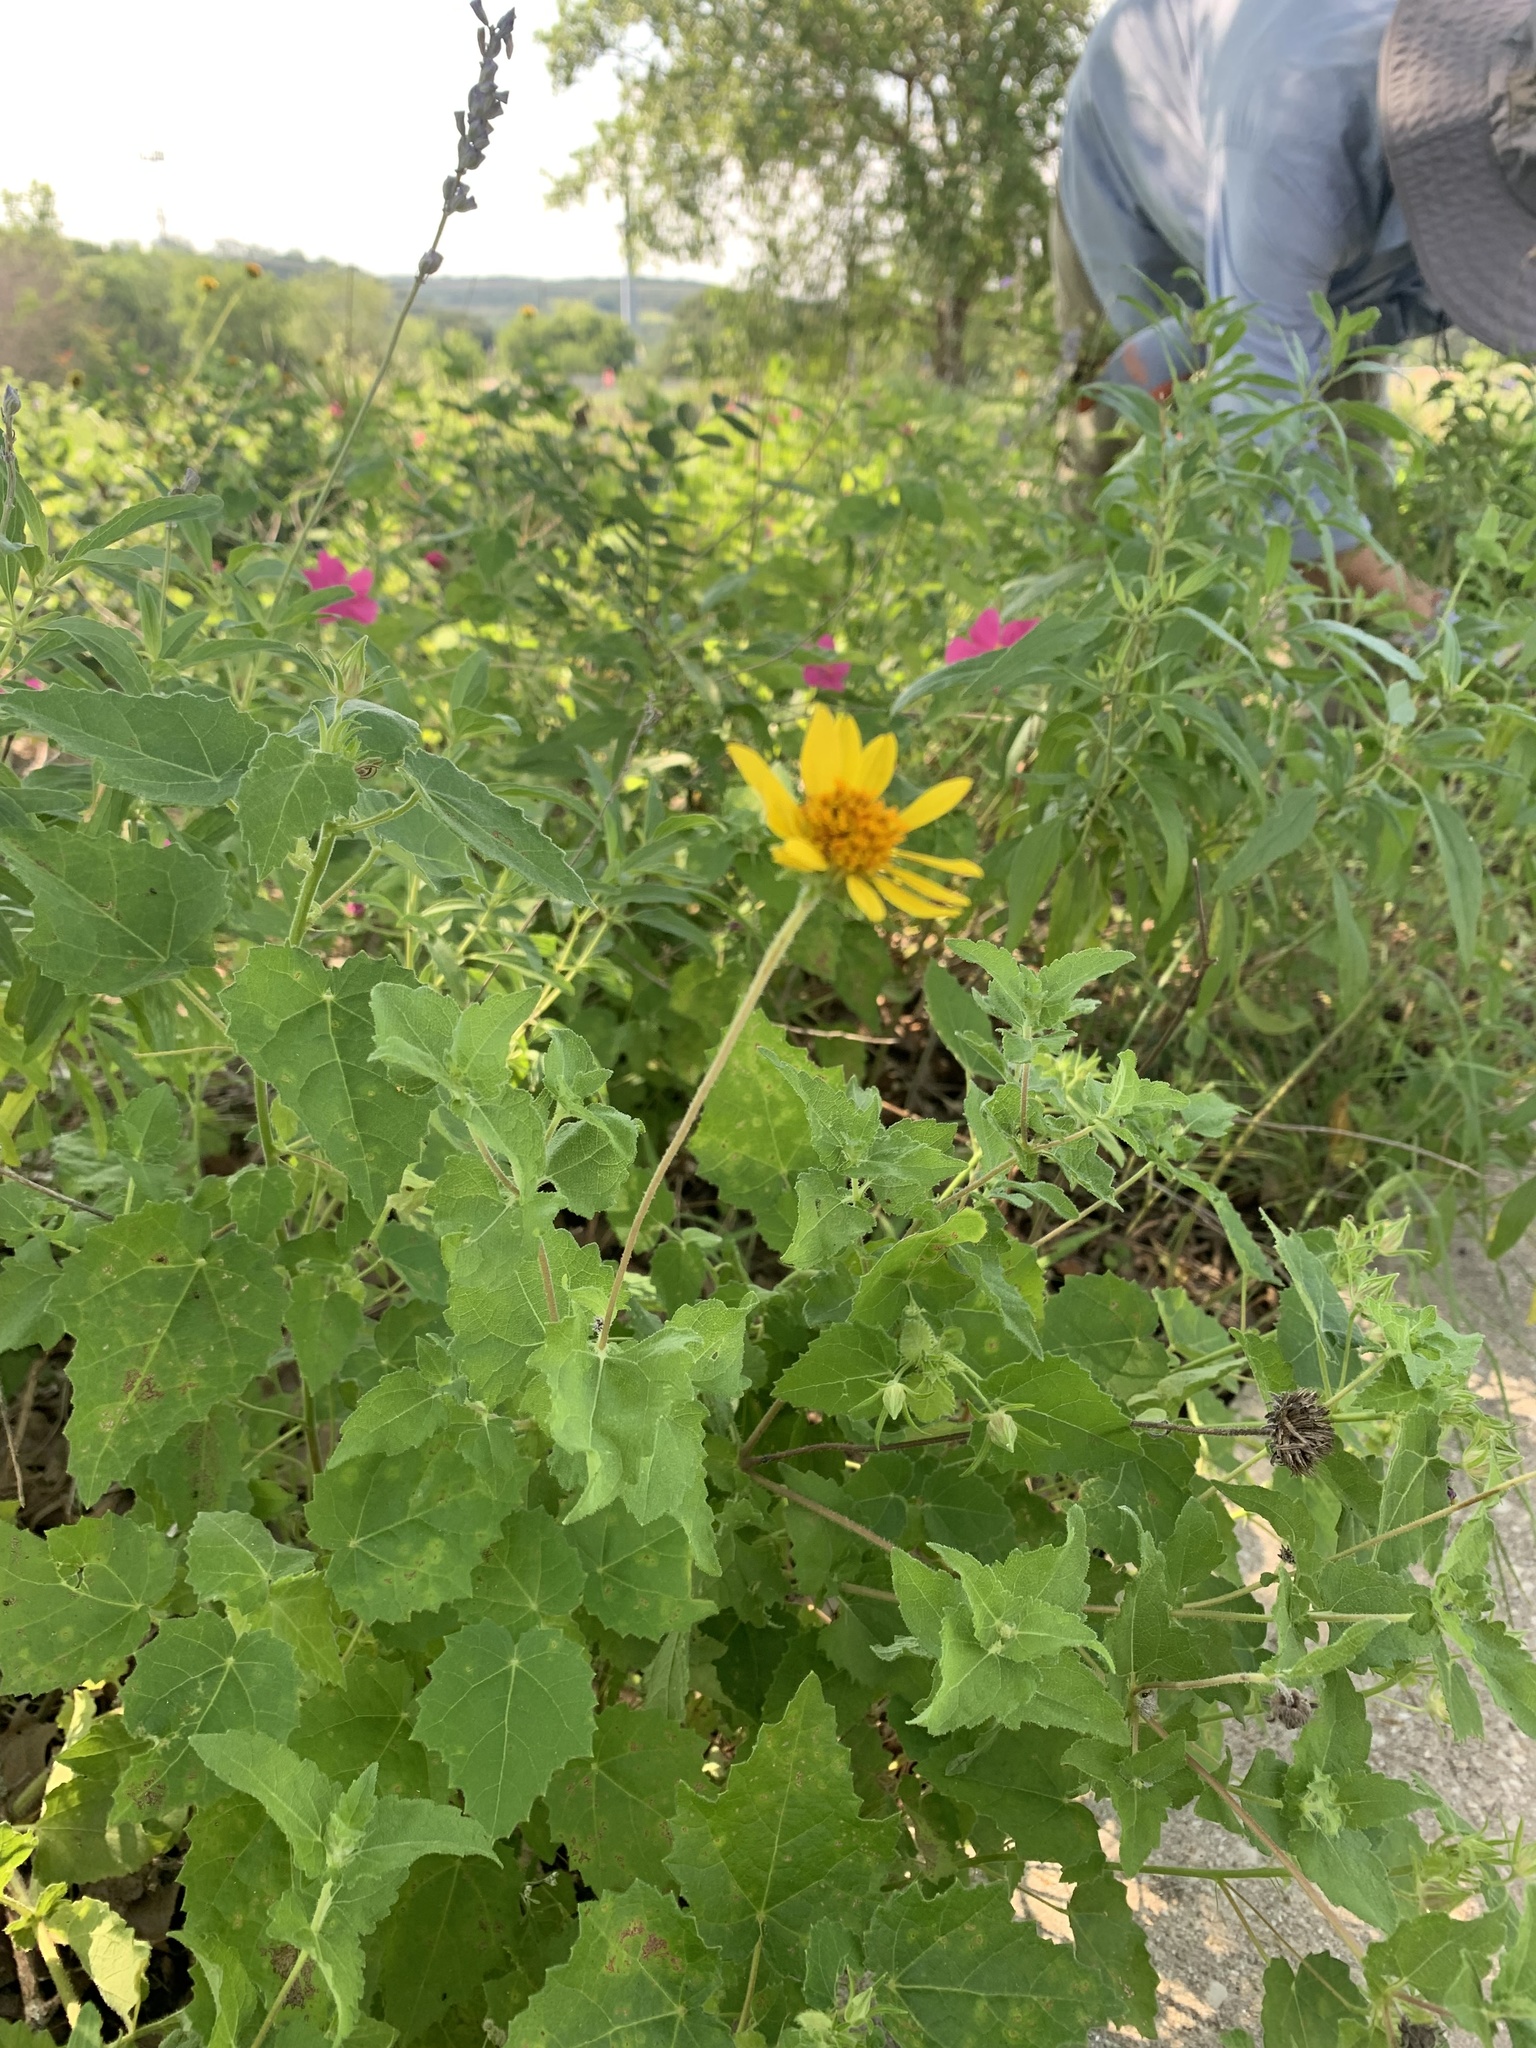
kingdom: Plantae
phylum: Tracheophyta
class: Magnoliopsida
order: Asterales
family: Asteraceae
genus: Simsia
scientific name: Simsia calva
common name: Awnless bush-sunflower
